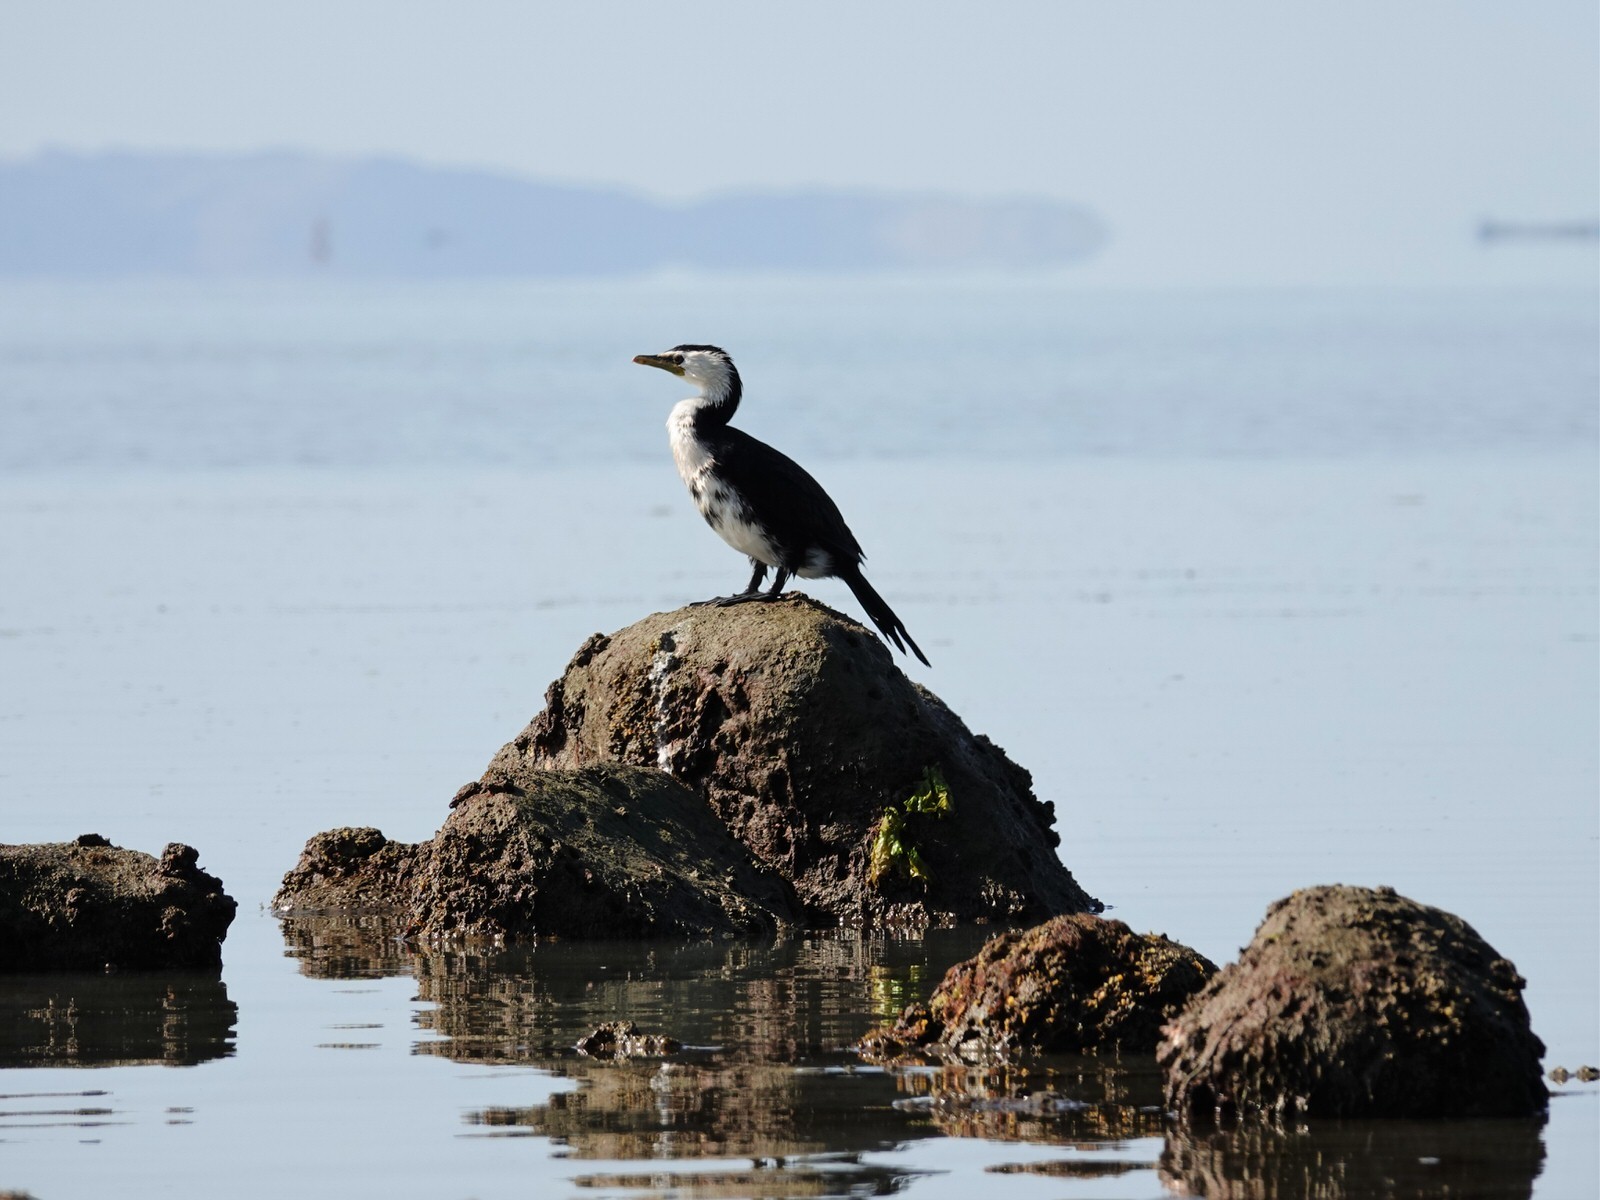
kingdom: Animalia
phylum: Chordata
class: Aves
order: Suliformes
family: Phalacrocoracidae
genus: Microcarbo
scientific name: Microcarbo melanoleucos
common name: Little pied cormorant
